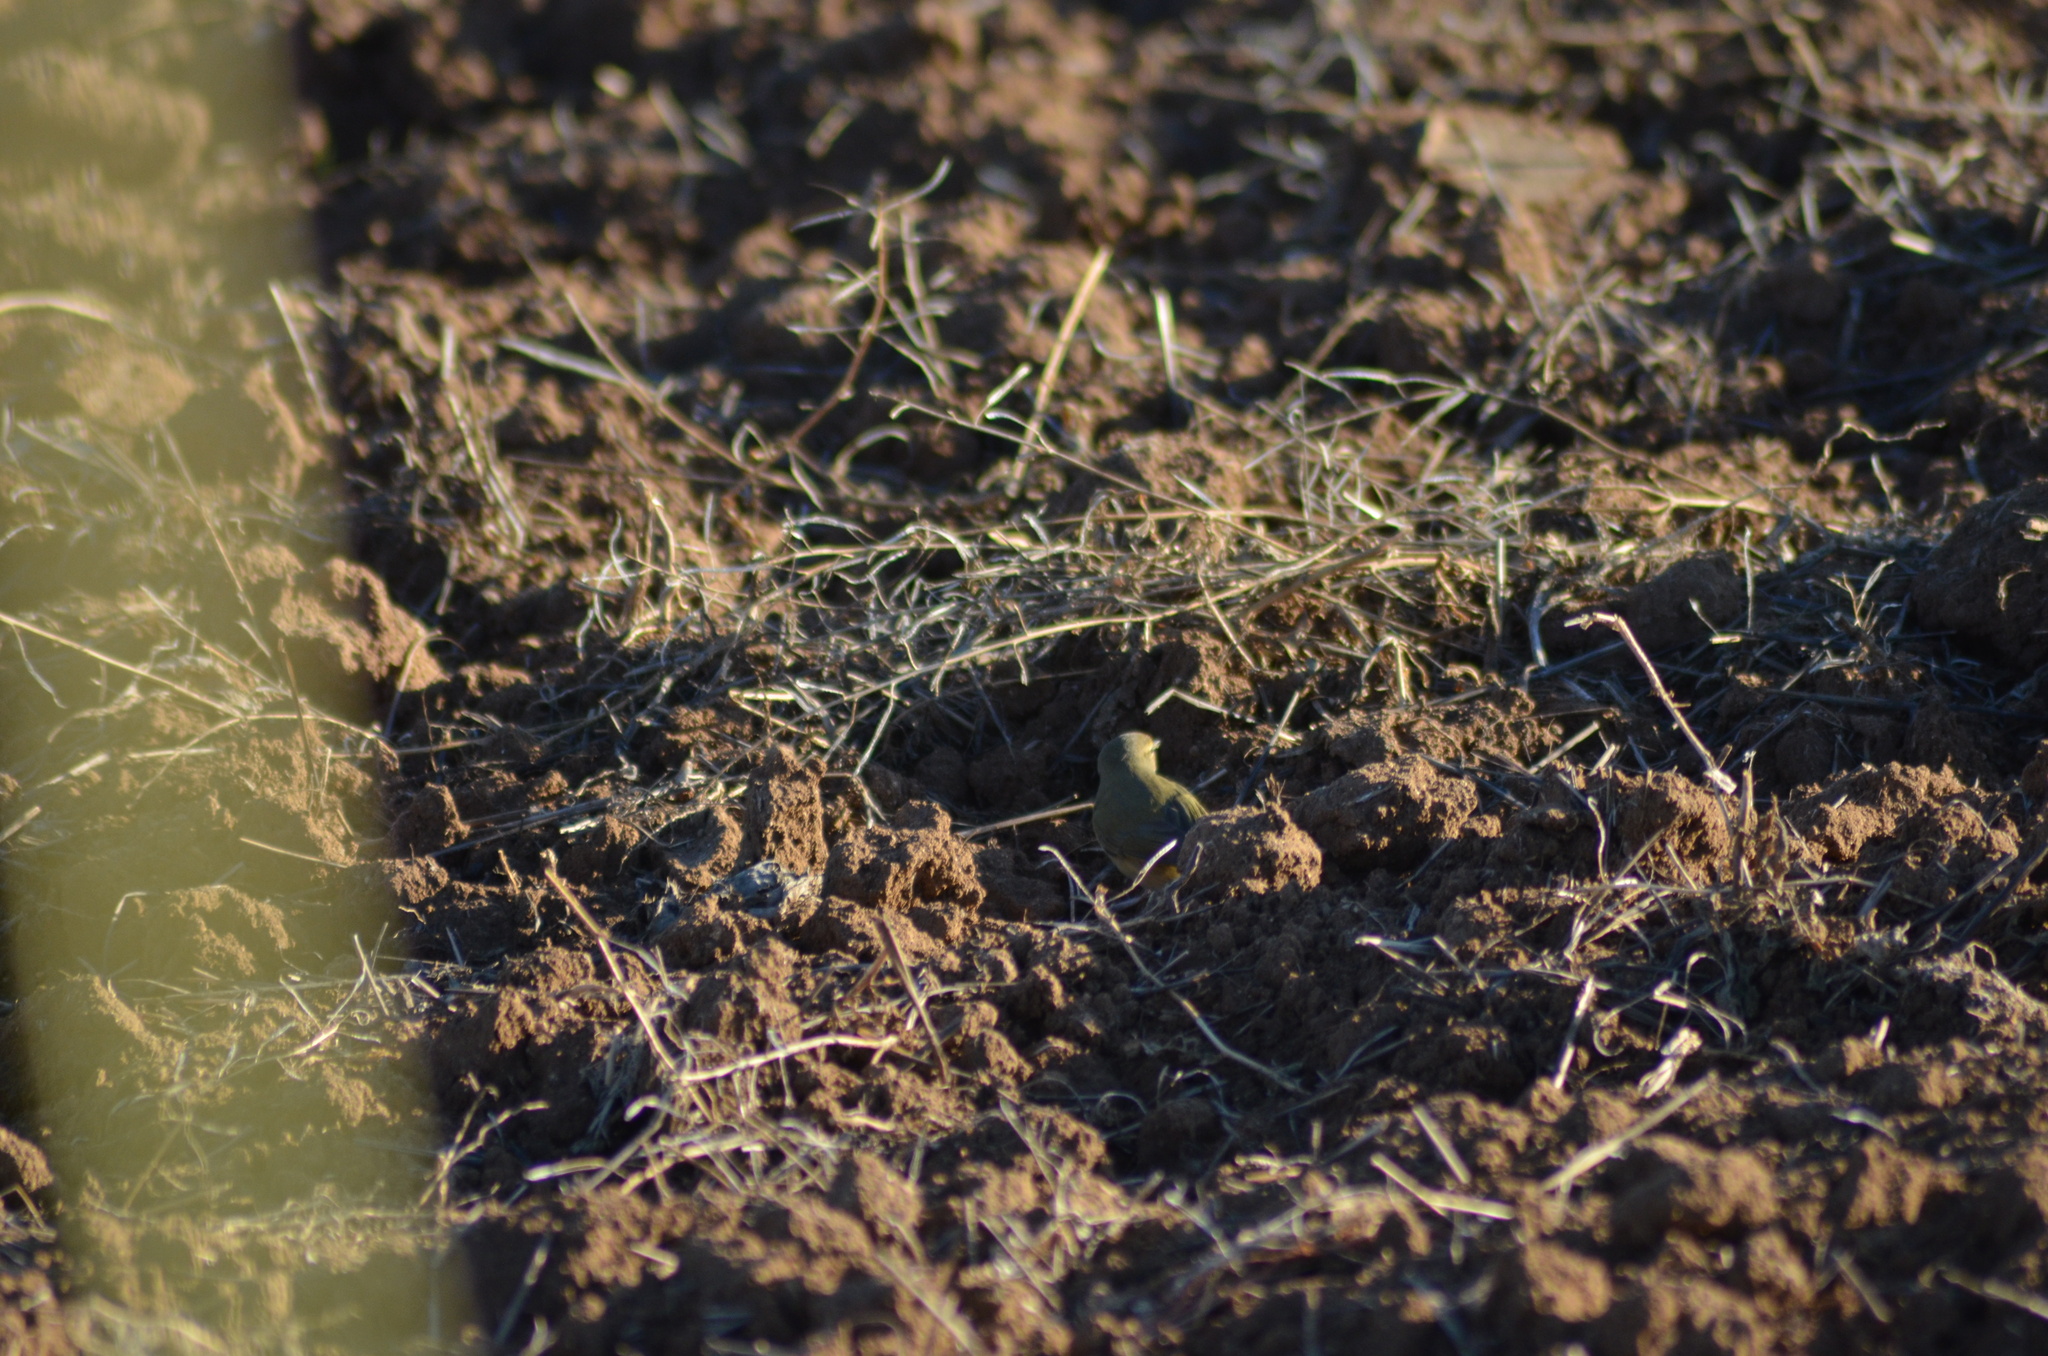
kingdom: Animalia
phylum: Chordata
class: Aves
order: Passeriformes
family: Phylloscopidae
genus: Phylloscopus
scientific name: Phylloscopus collybita
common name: Common chiffchaff
